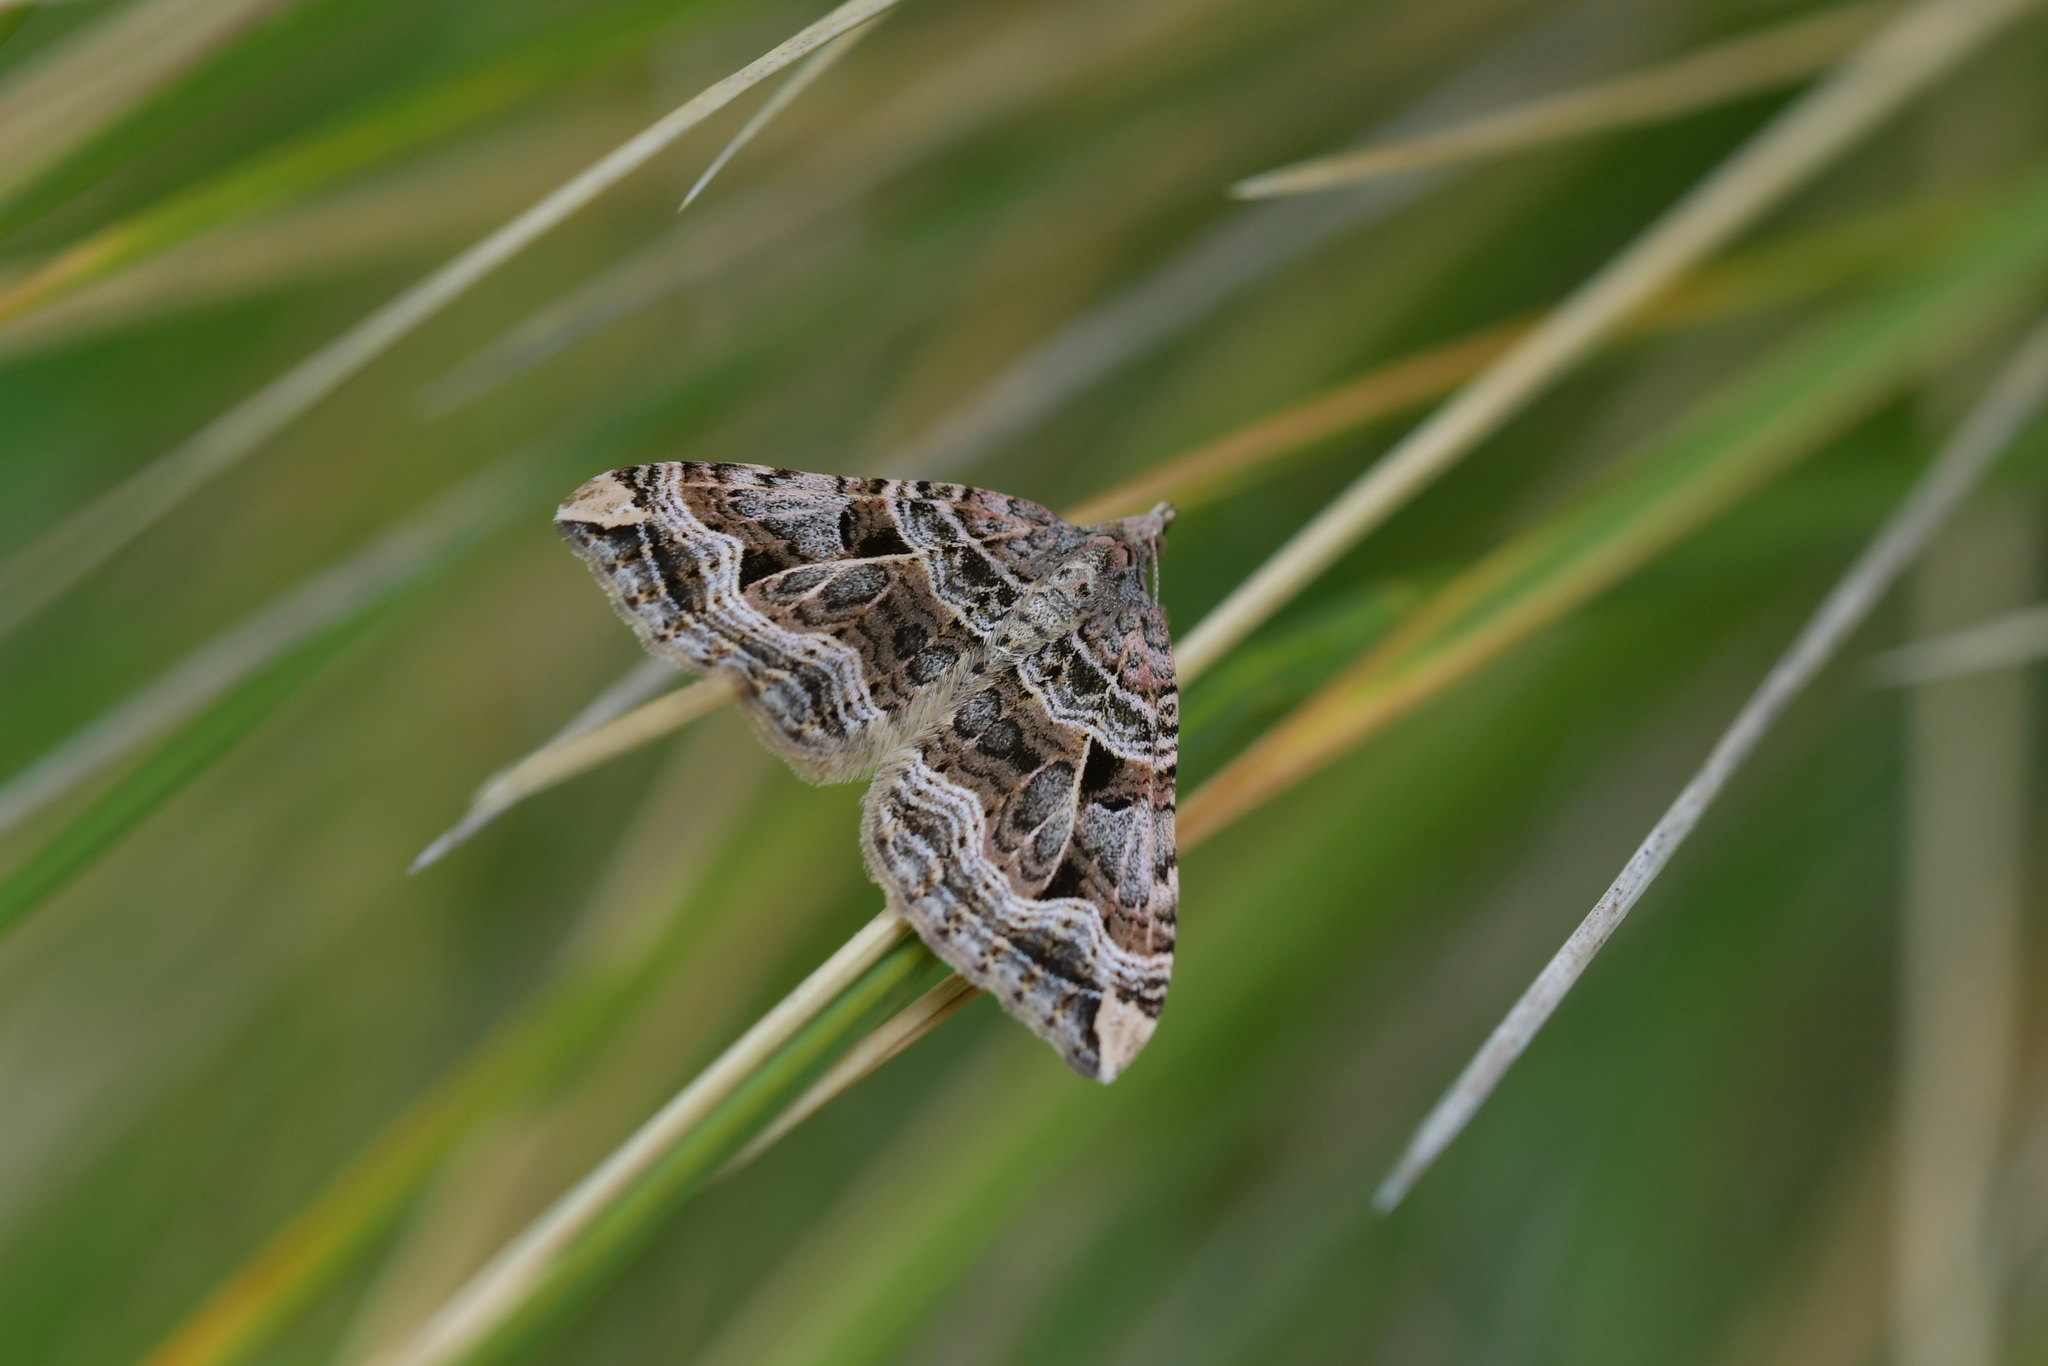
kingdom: Animalia
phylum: Arthropoda
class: Insecta
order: Lepidoptera
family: Geometridae
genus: Xanthorhoe
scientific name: Xanthorhoe semifissata
